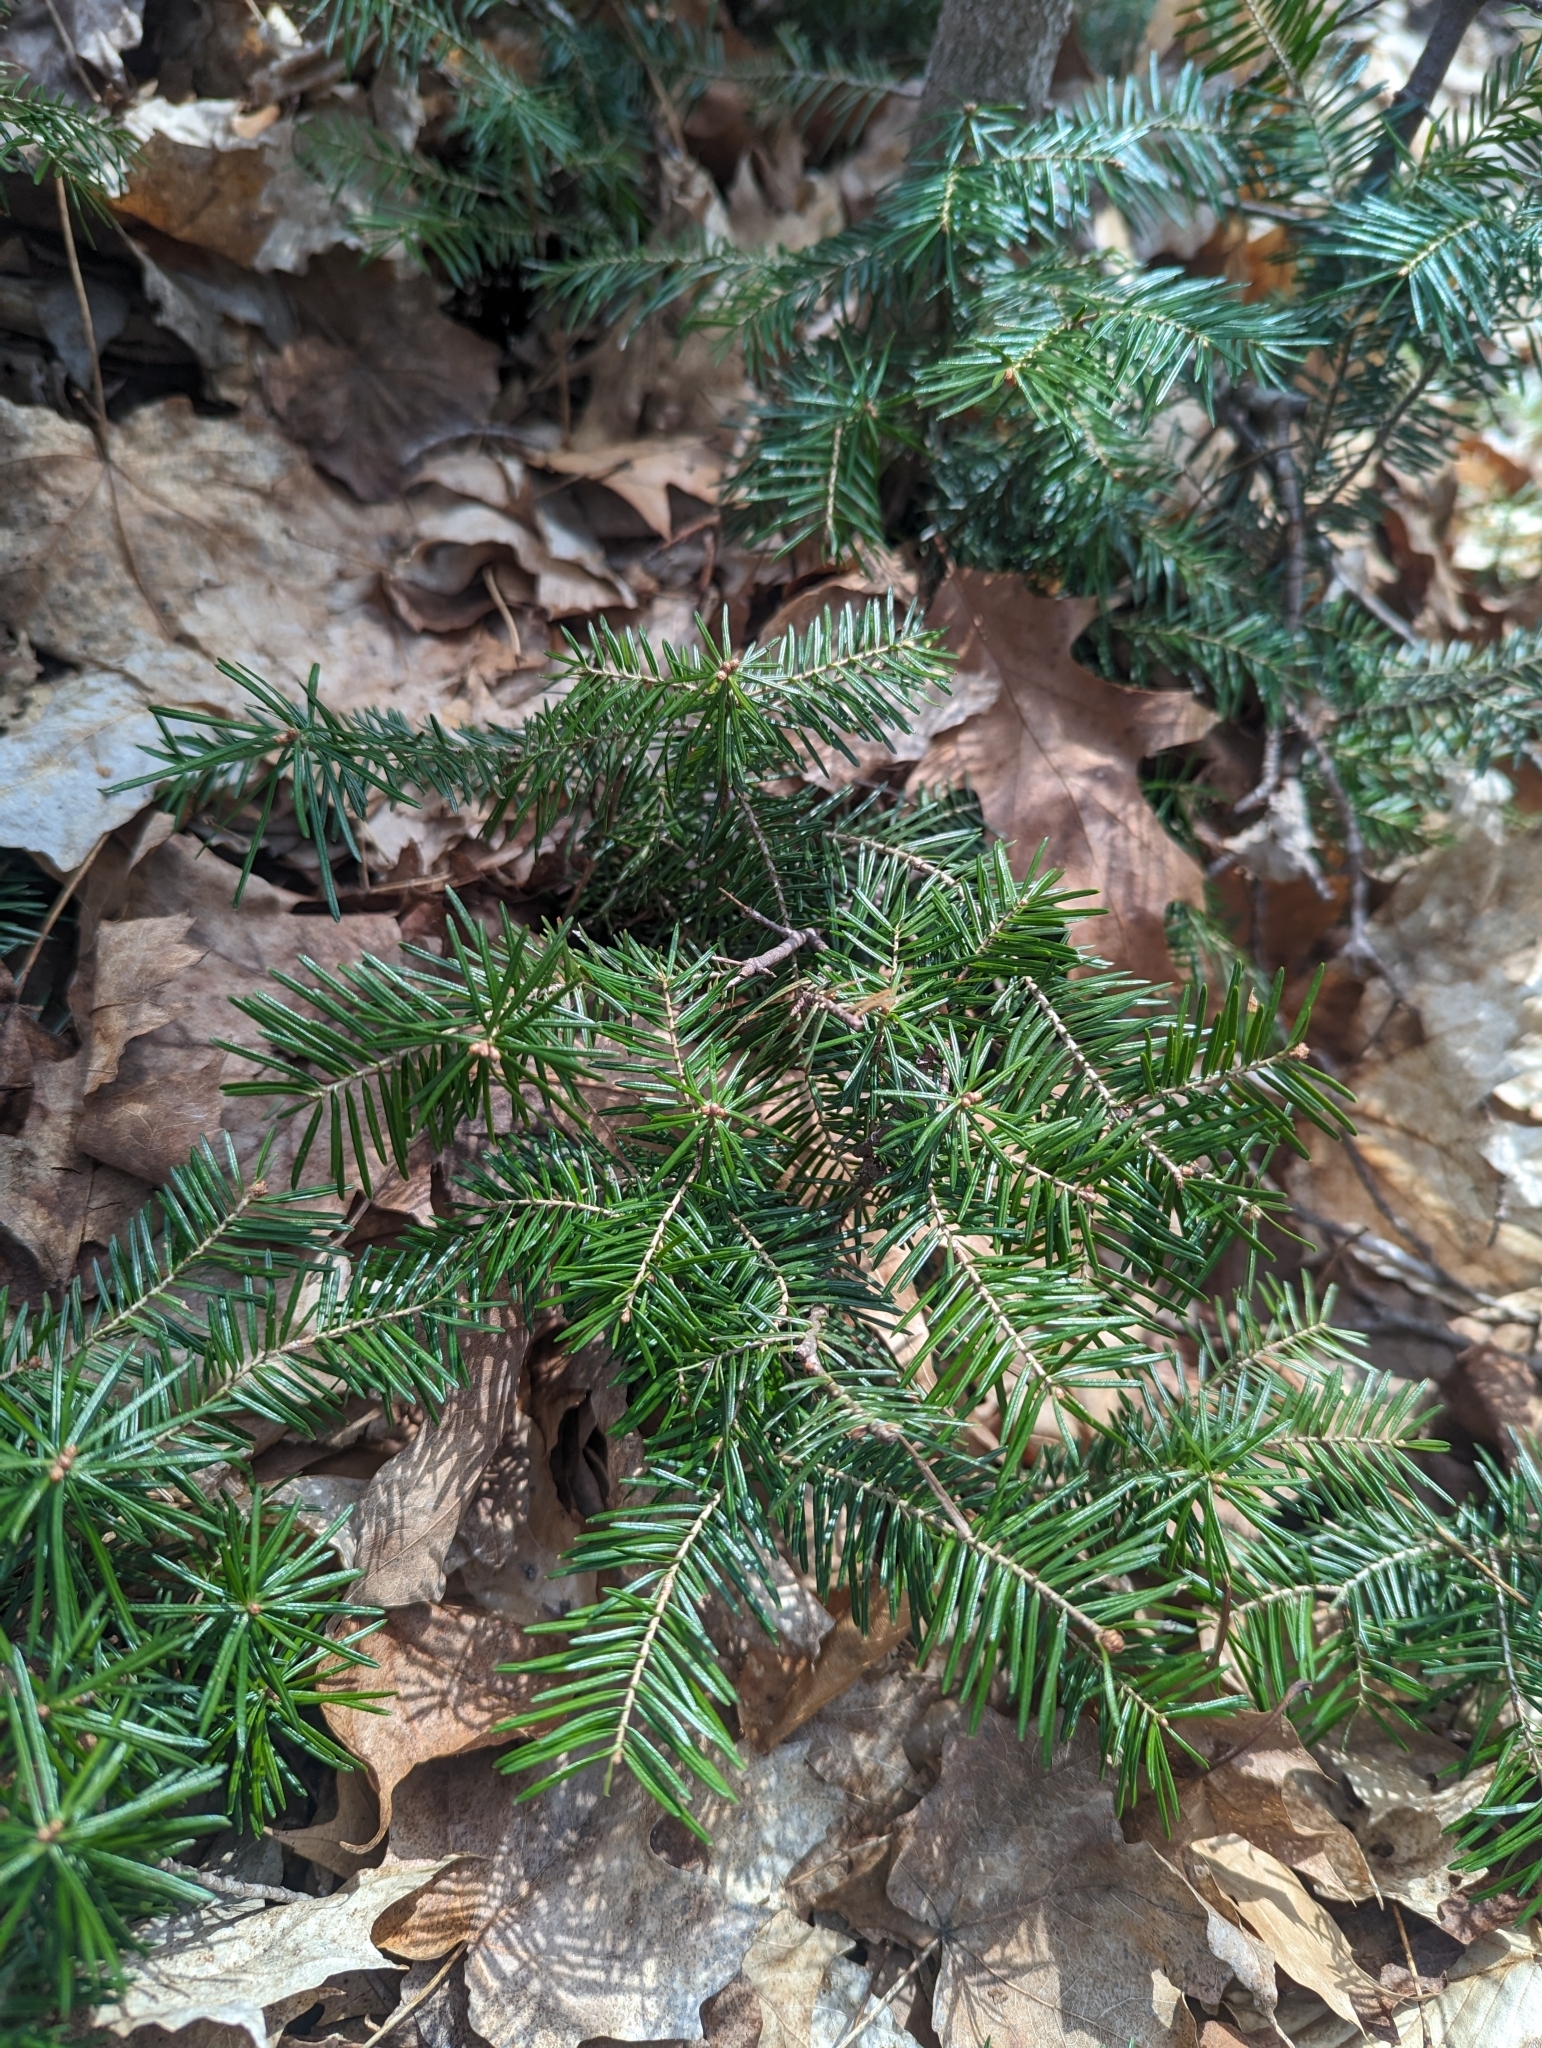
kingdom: Plantae
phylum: Tracheophyta
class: Pinopsida
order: Pinales
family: Pinaceae
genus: Abies
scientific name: Abies balsamea
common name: Balsam fir
